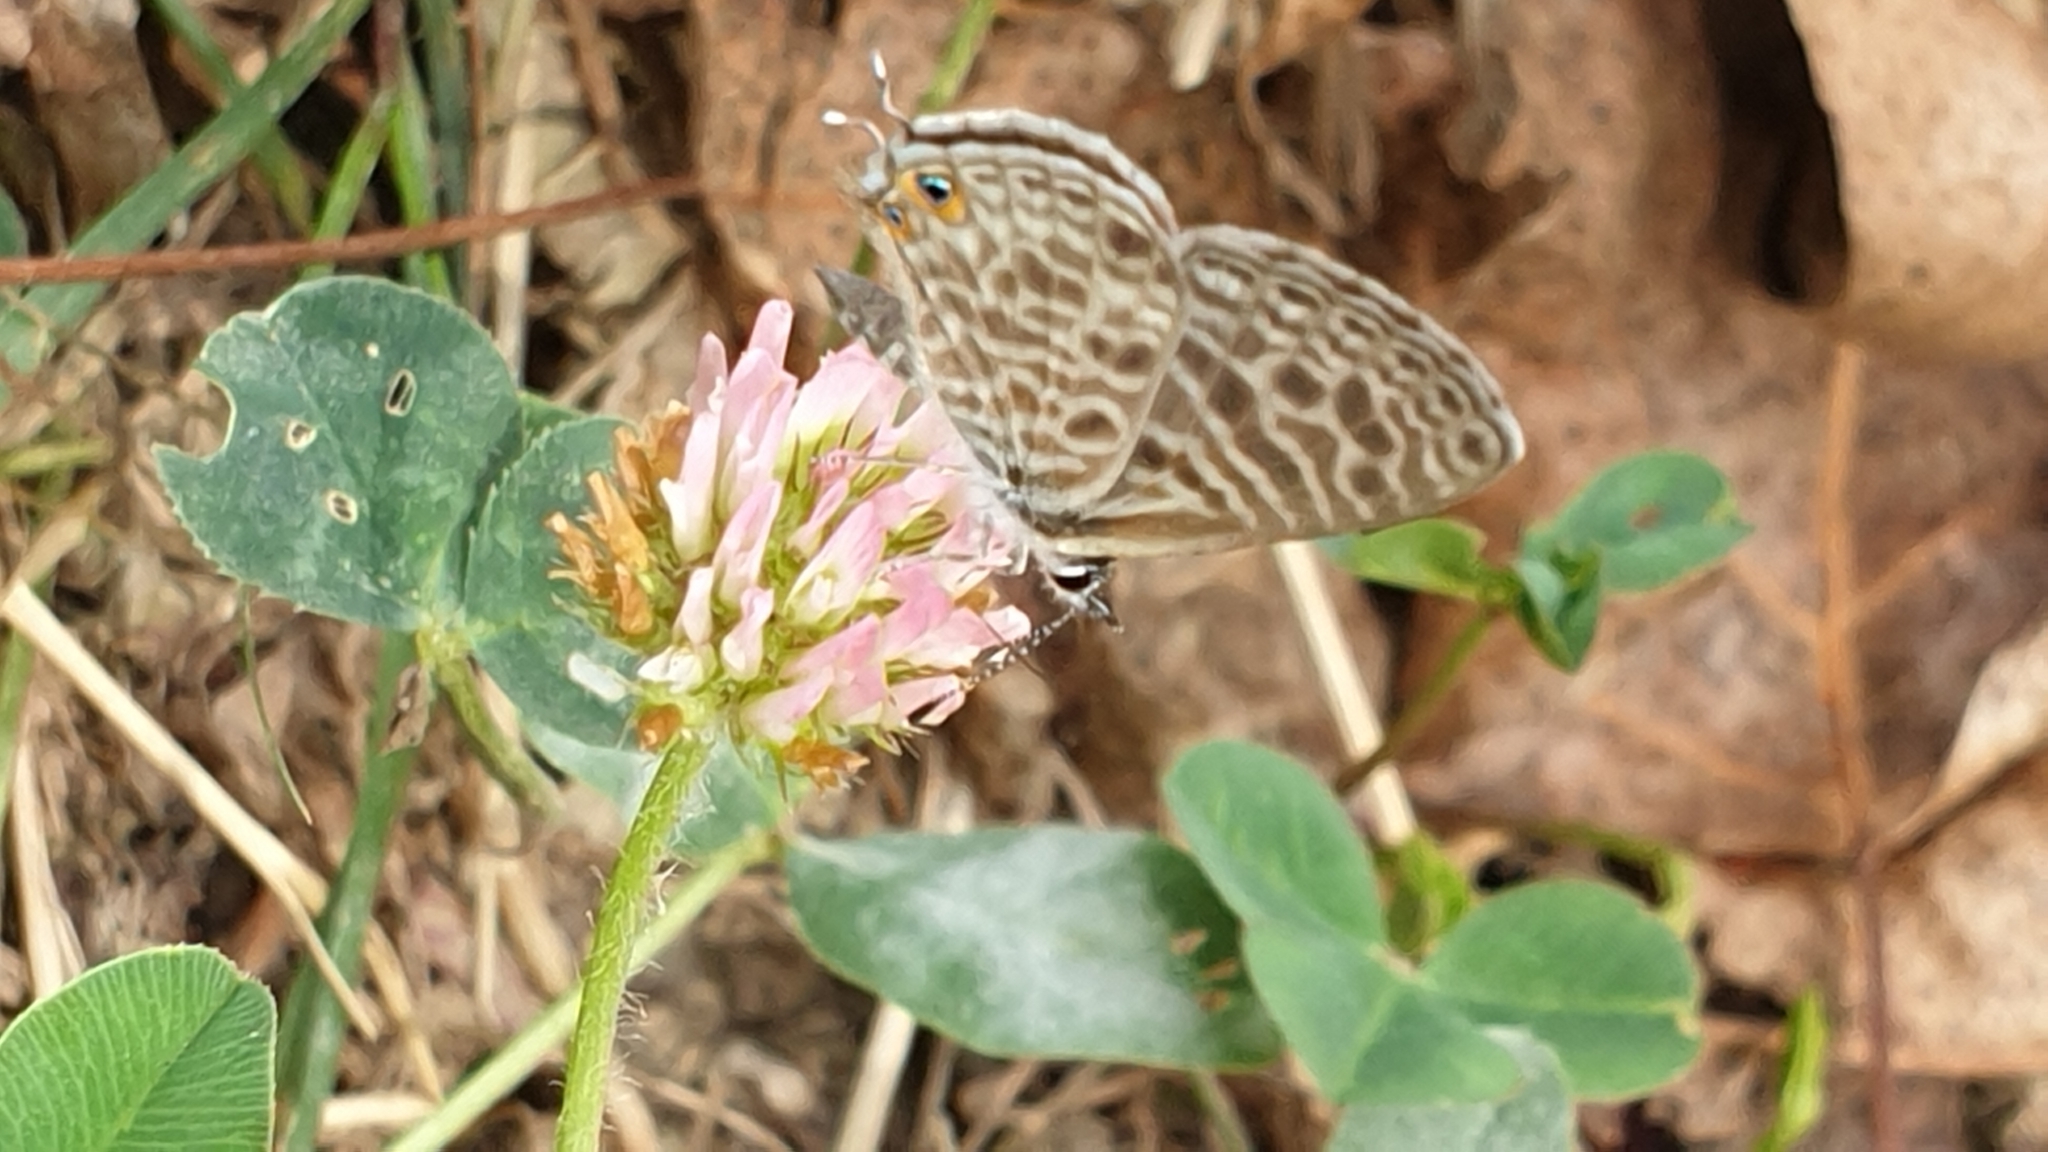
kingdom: Animalia
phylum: Arthropoda
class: Insecta
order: Lepidoptera
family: Lycaenidae
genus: Leptotes
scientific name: Leptotes pirithous
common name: Lang's short-tailed blue
